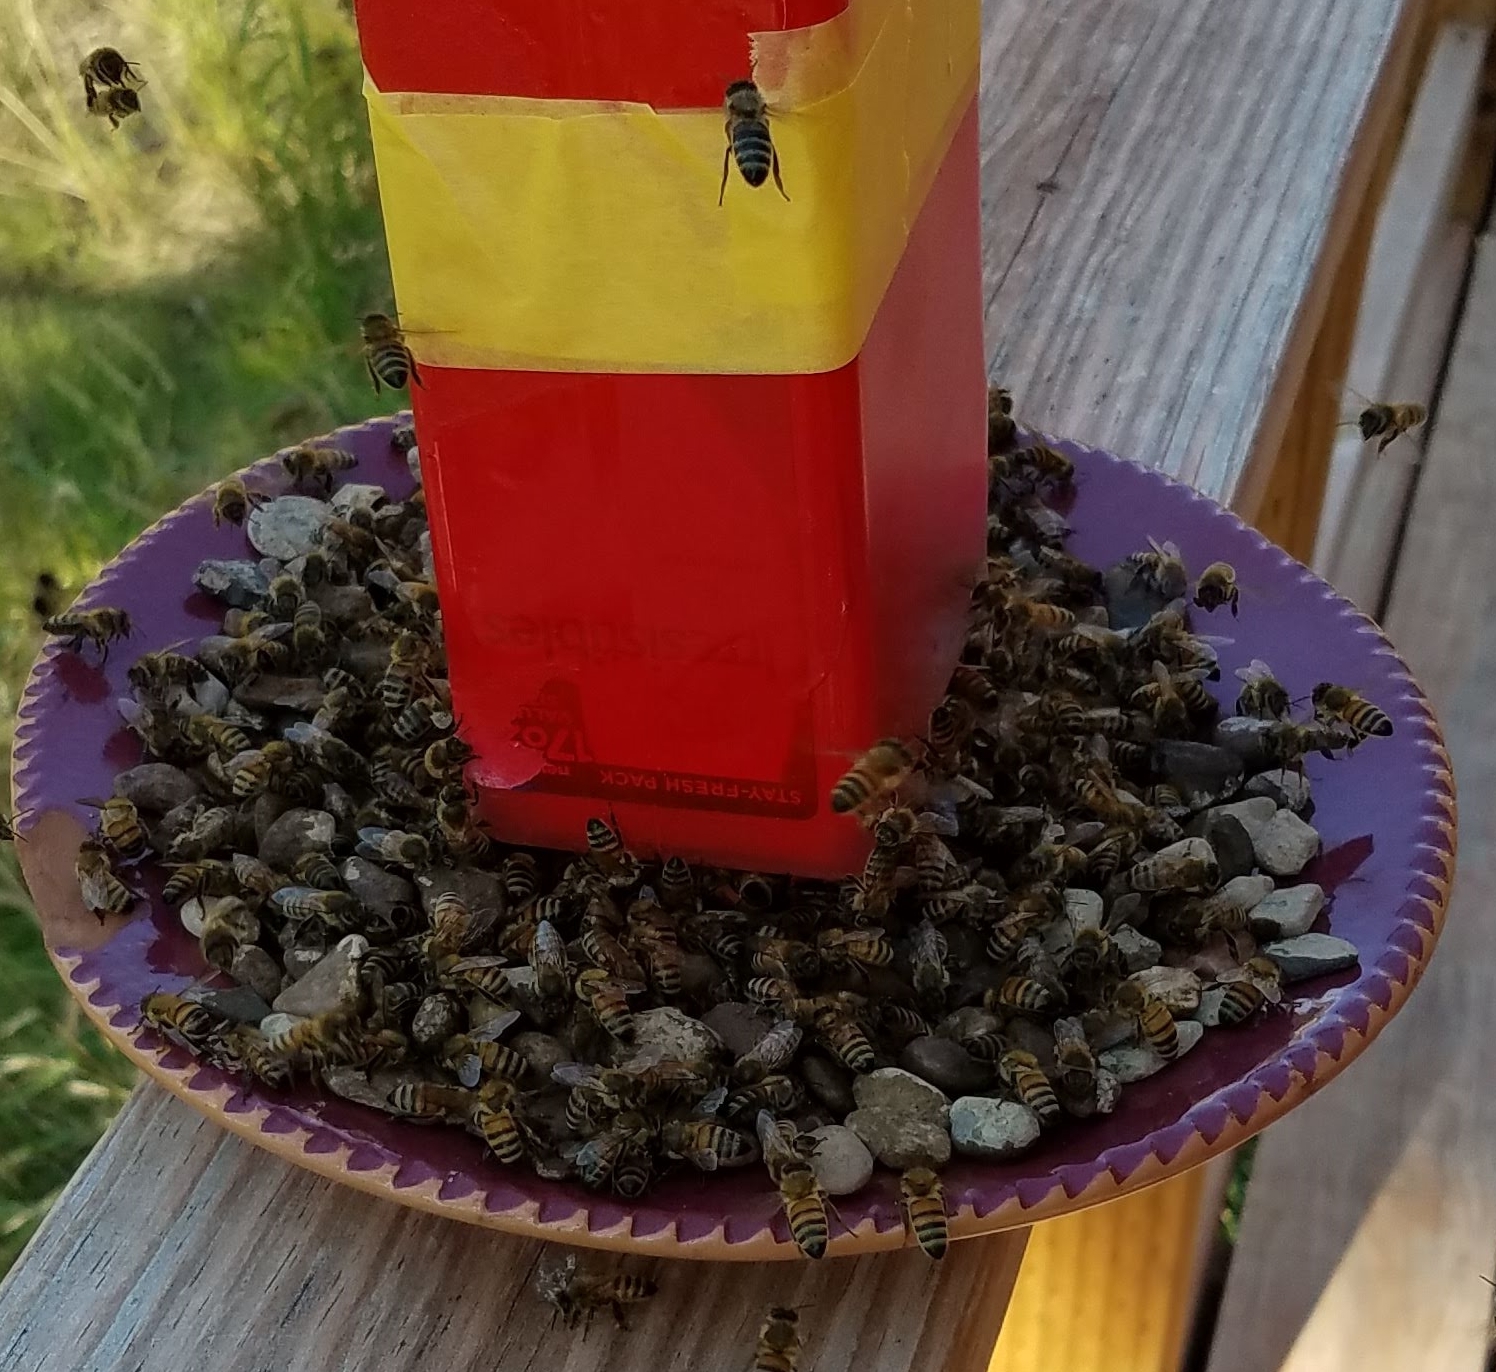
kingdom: Animalia
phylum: Arthropoda
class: Insecta
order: Hymenoptera
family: Apidae
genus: Apis
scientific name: Apis mellifera
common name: Honey bee
